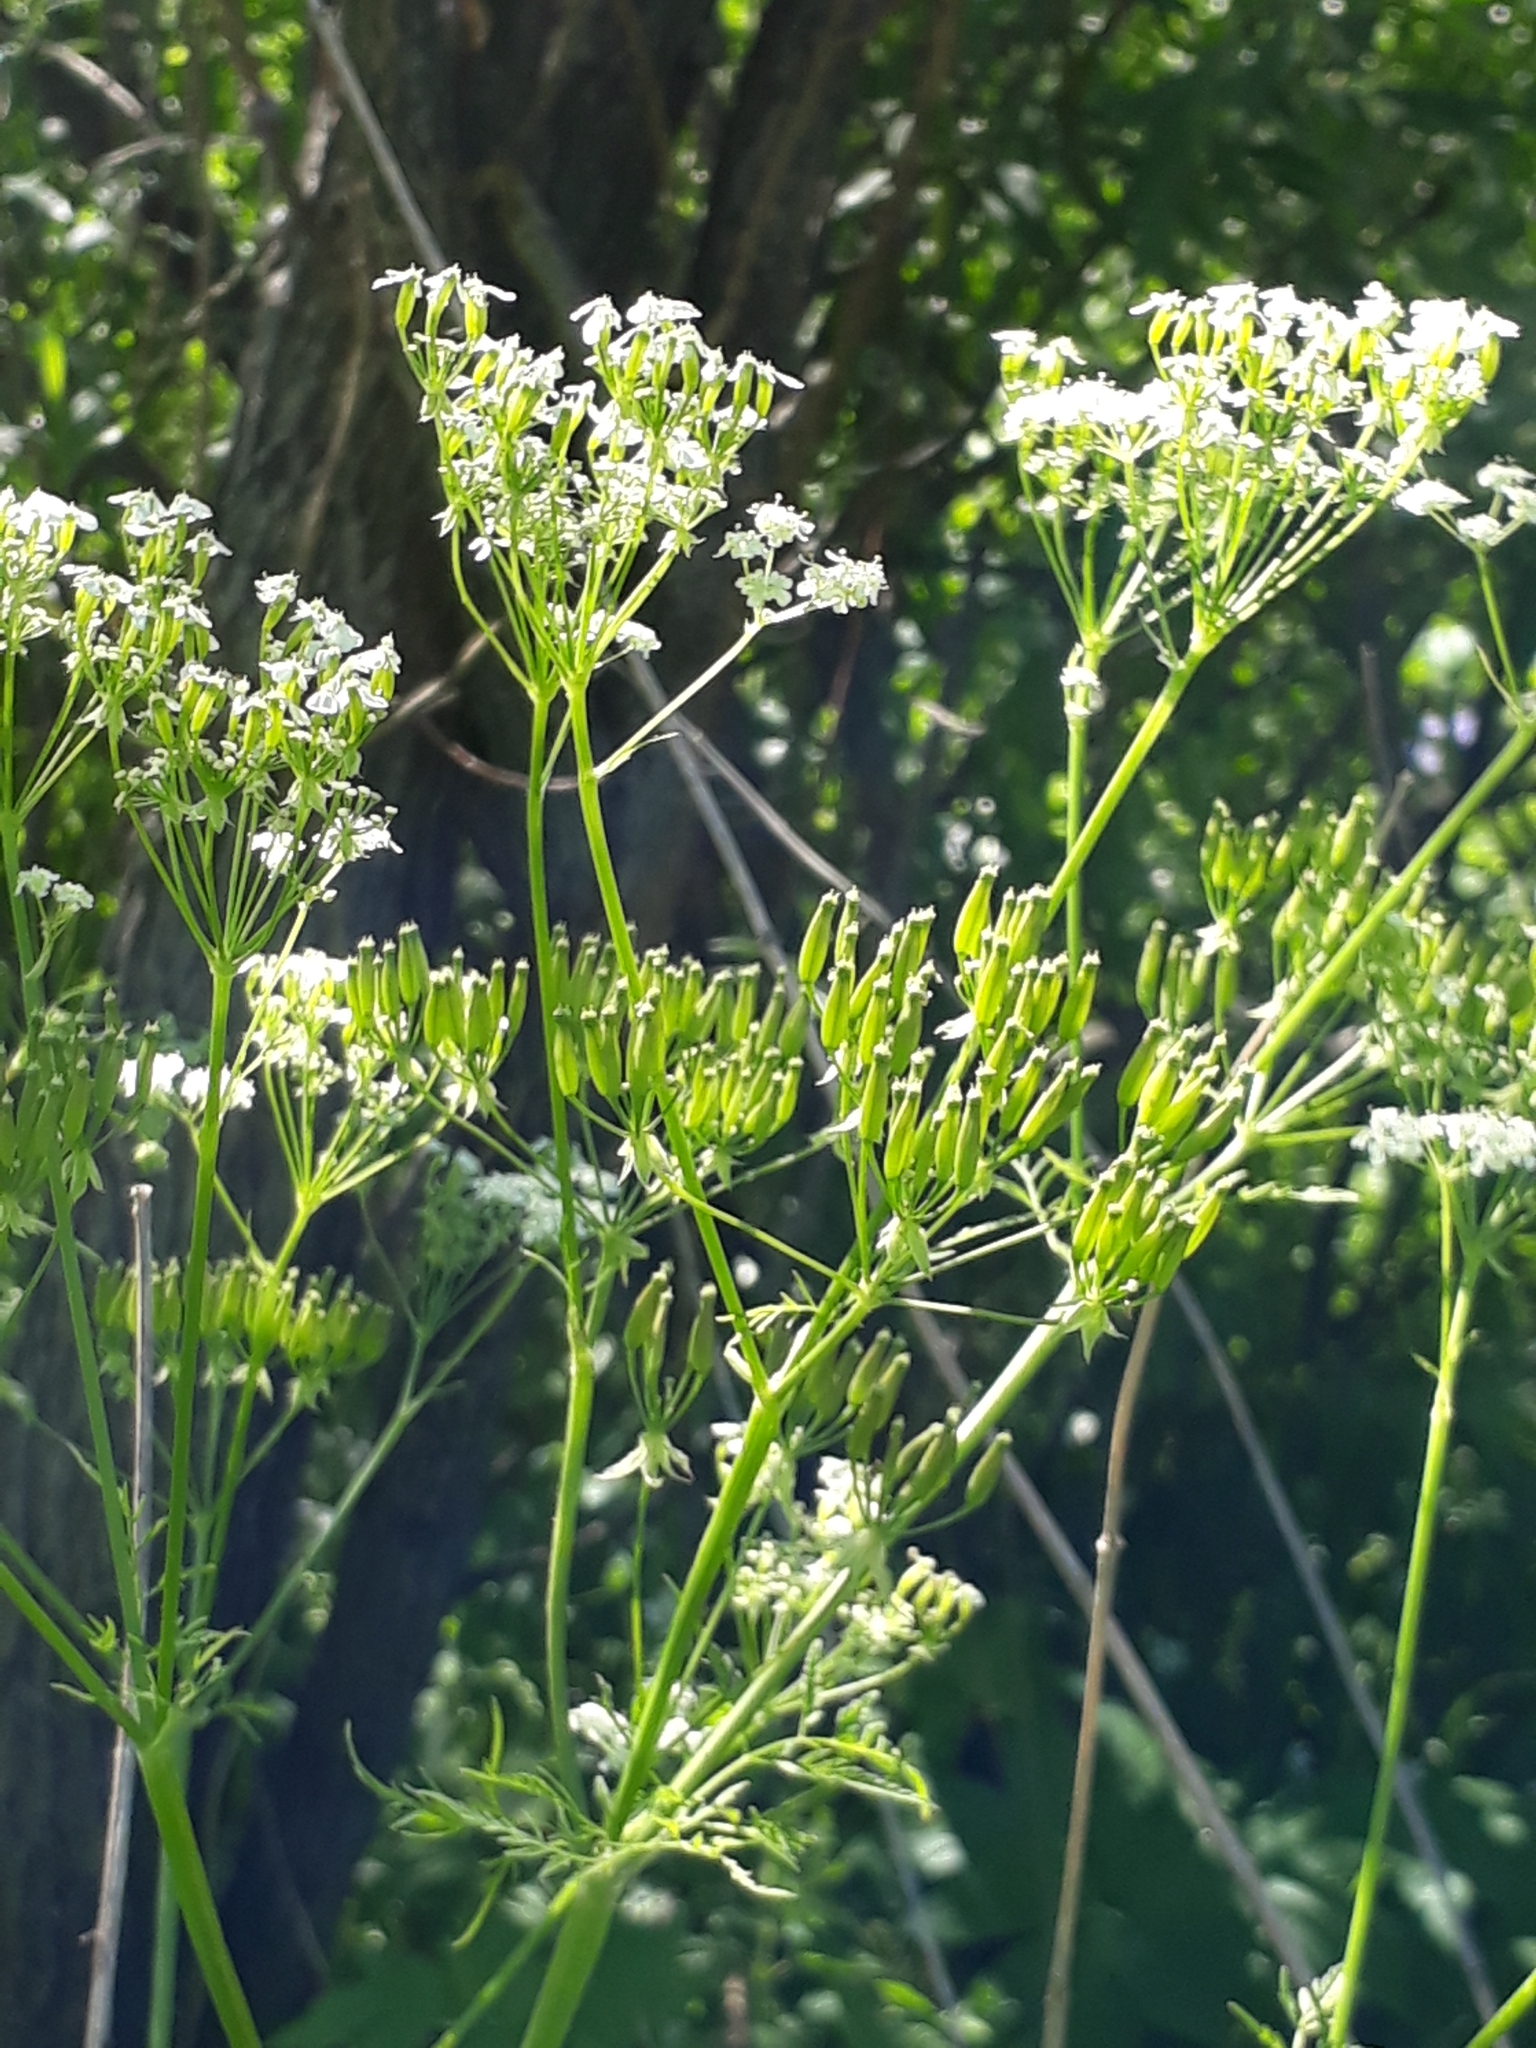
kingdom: Plantae
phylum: Tracheophyta
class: Magnoliopsida
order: Apiales
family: Apiaceae
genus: Anthriscus
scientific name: Anthriscus sylvestris
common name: Cow parsley
